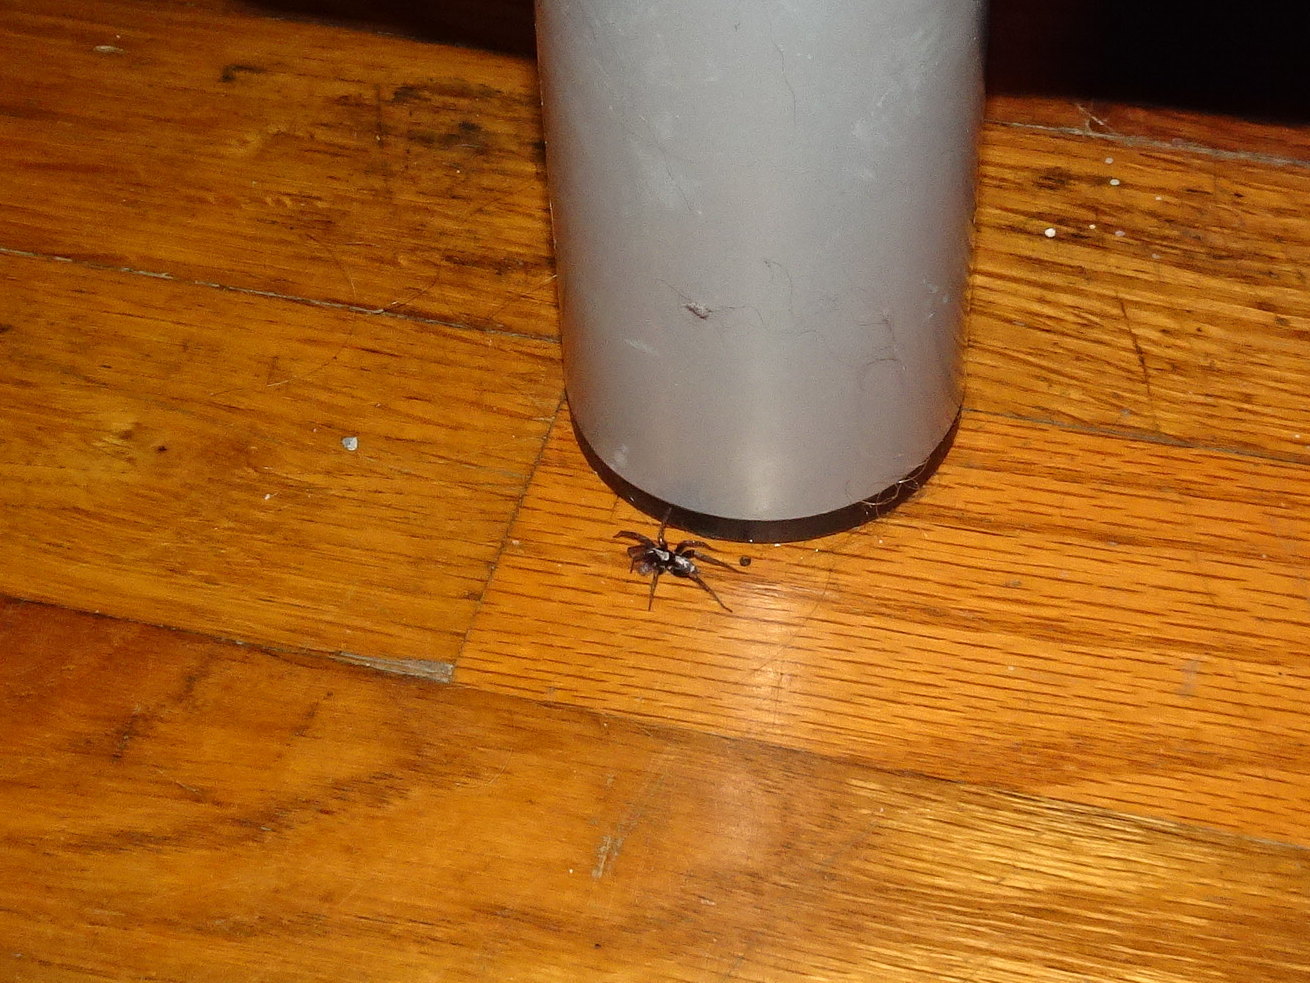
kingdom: Animalia
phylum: Arthropoda
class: Arachnida
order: Araneae
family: Gnaphosidae
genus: Herpyllus
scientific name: Herpyllus ecclesiasticus
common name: Eastern parson spider
